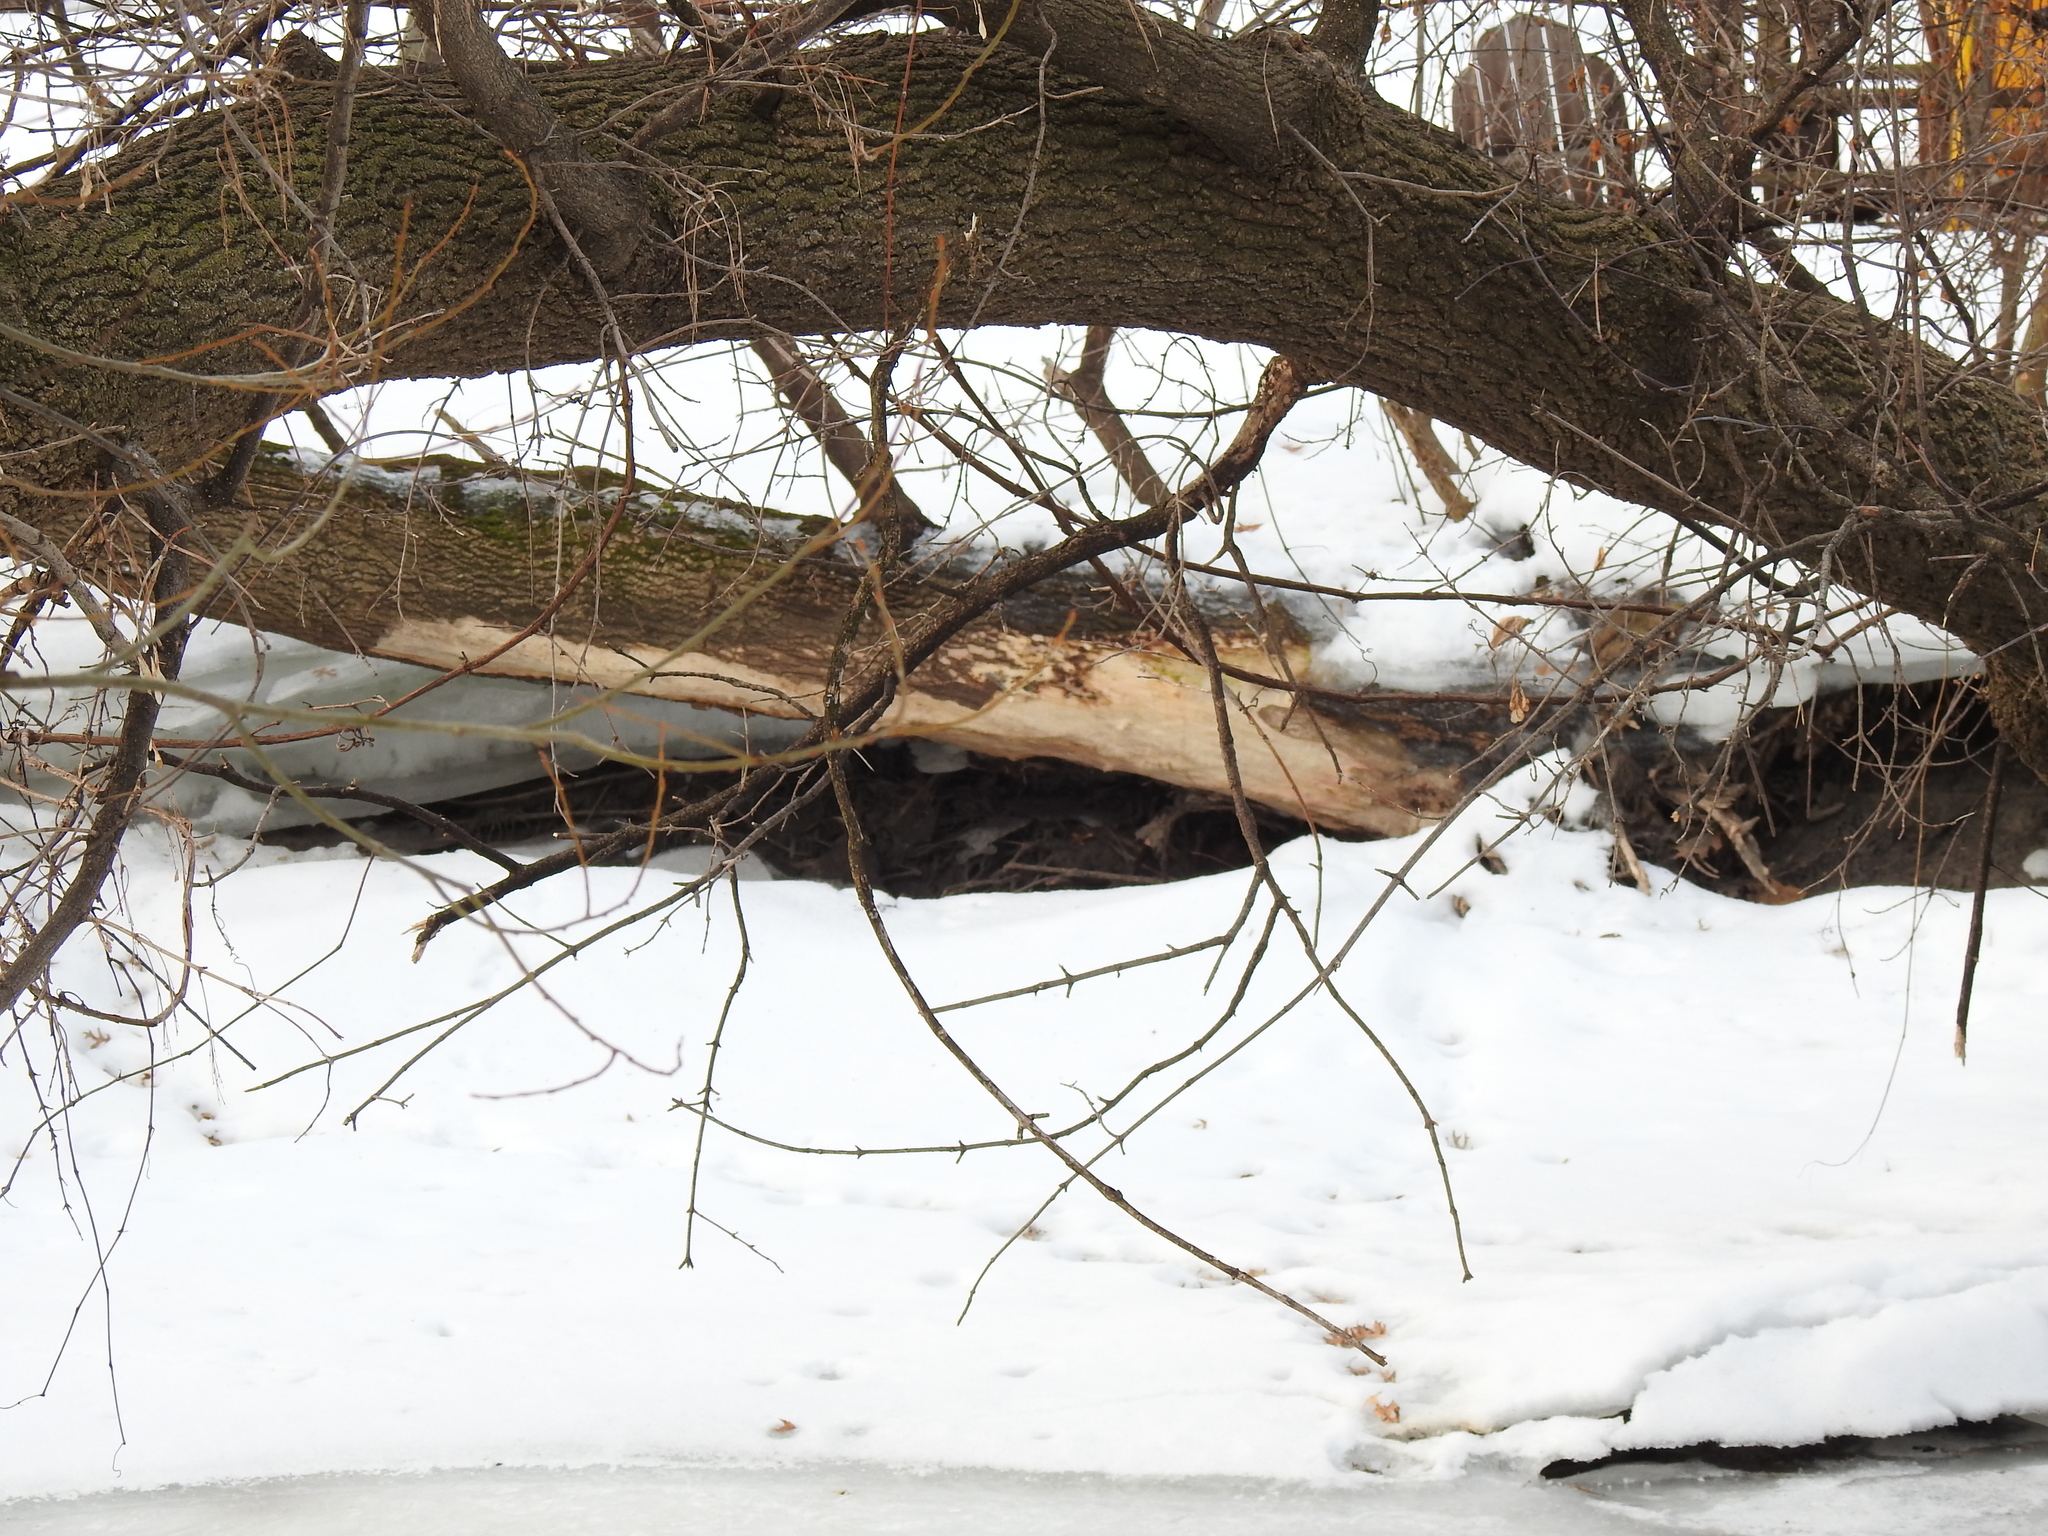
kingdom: Animalia
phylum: Chordata
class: Mammalia
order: Rodentia
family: Castoridae
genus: Castor
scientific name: Castor canadensis
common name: American beaver
